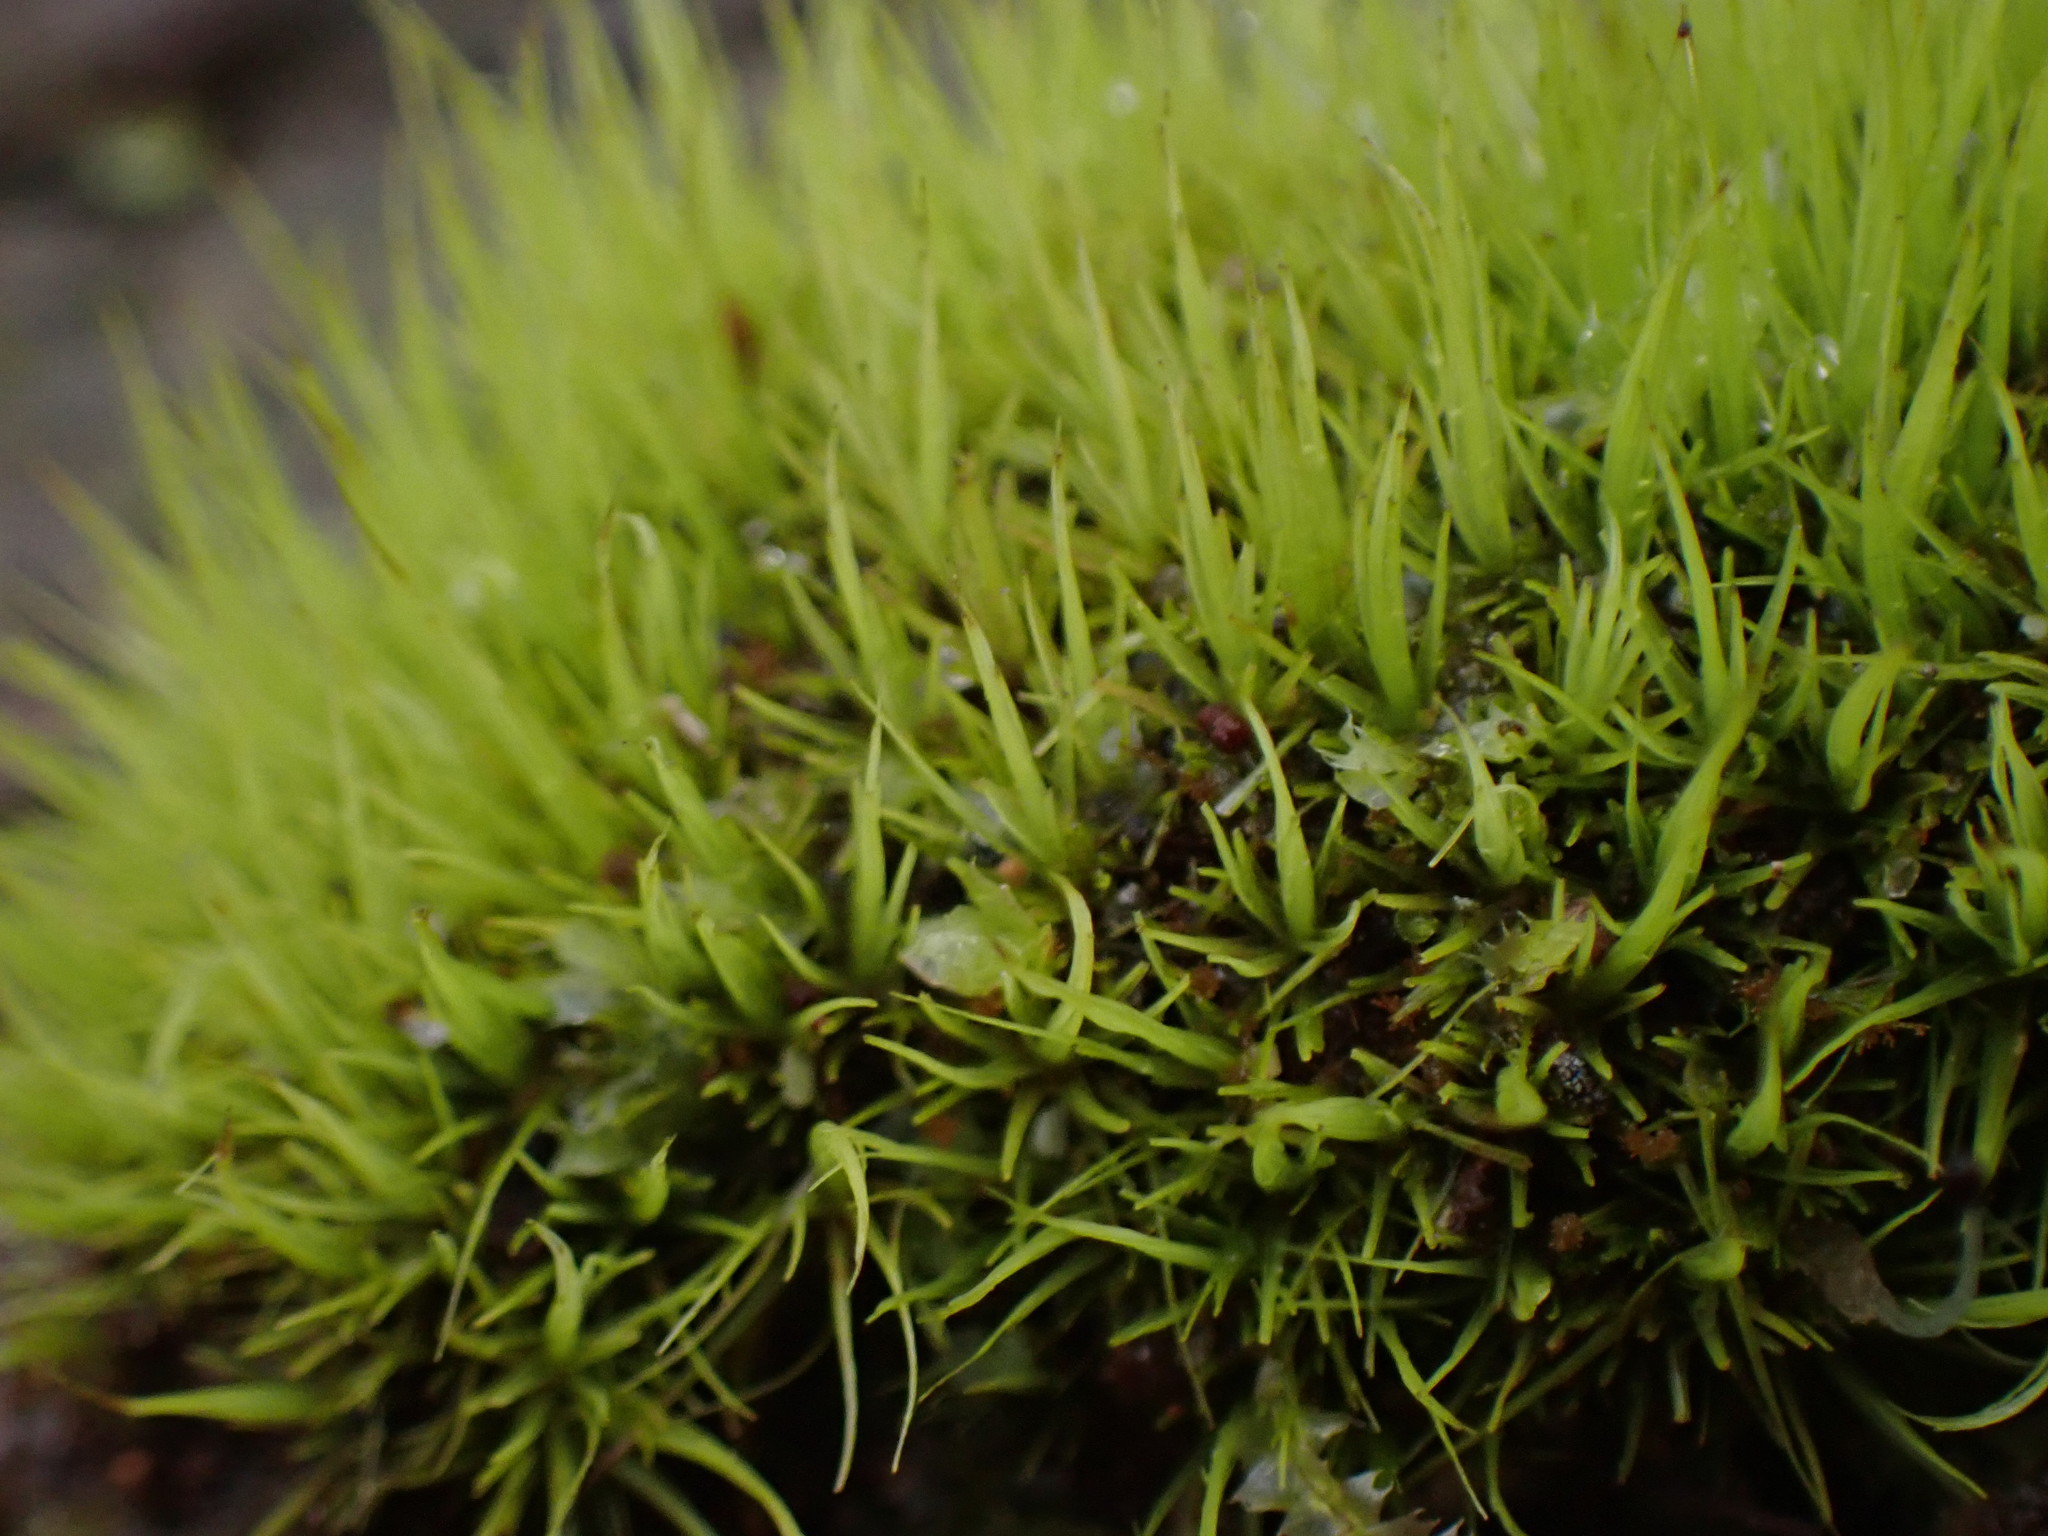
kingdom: Plantae
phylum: Bryophyta
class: Bryopsida
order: Dicranales
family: Dicranaceae
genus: Orthodicranum
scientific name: Orthodicranum tauricum
